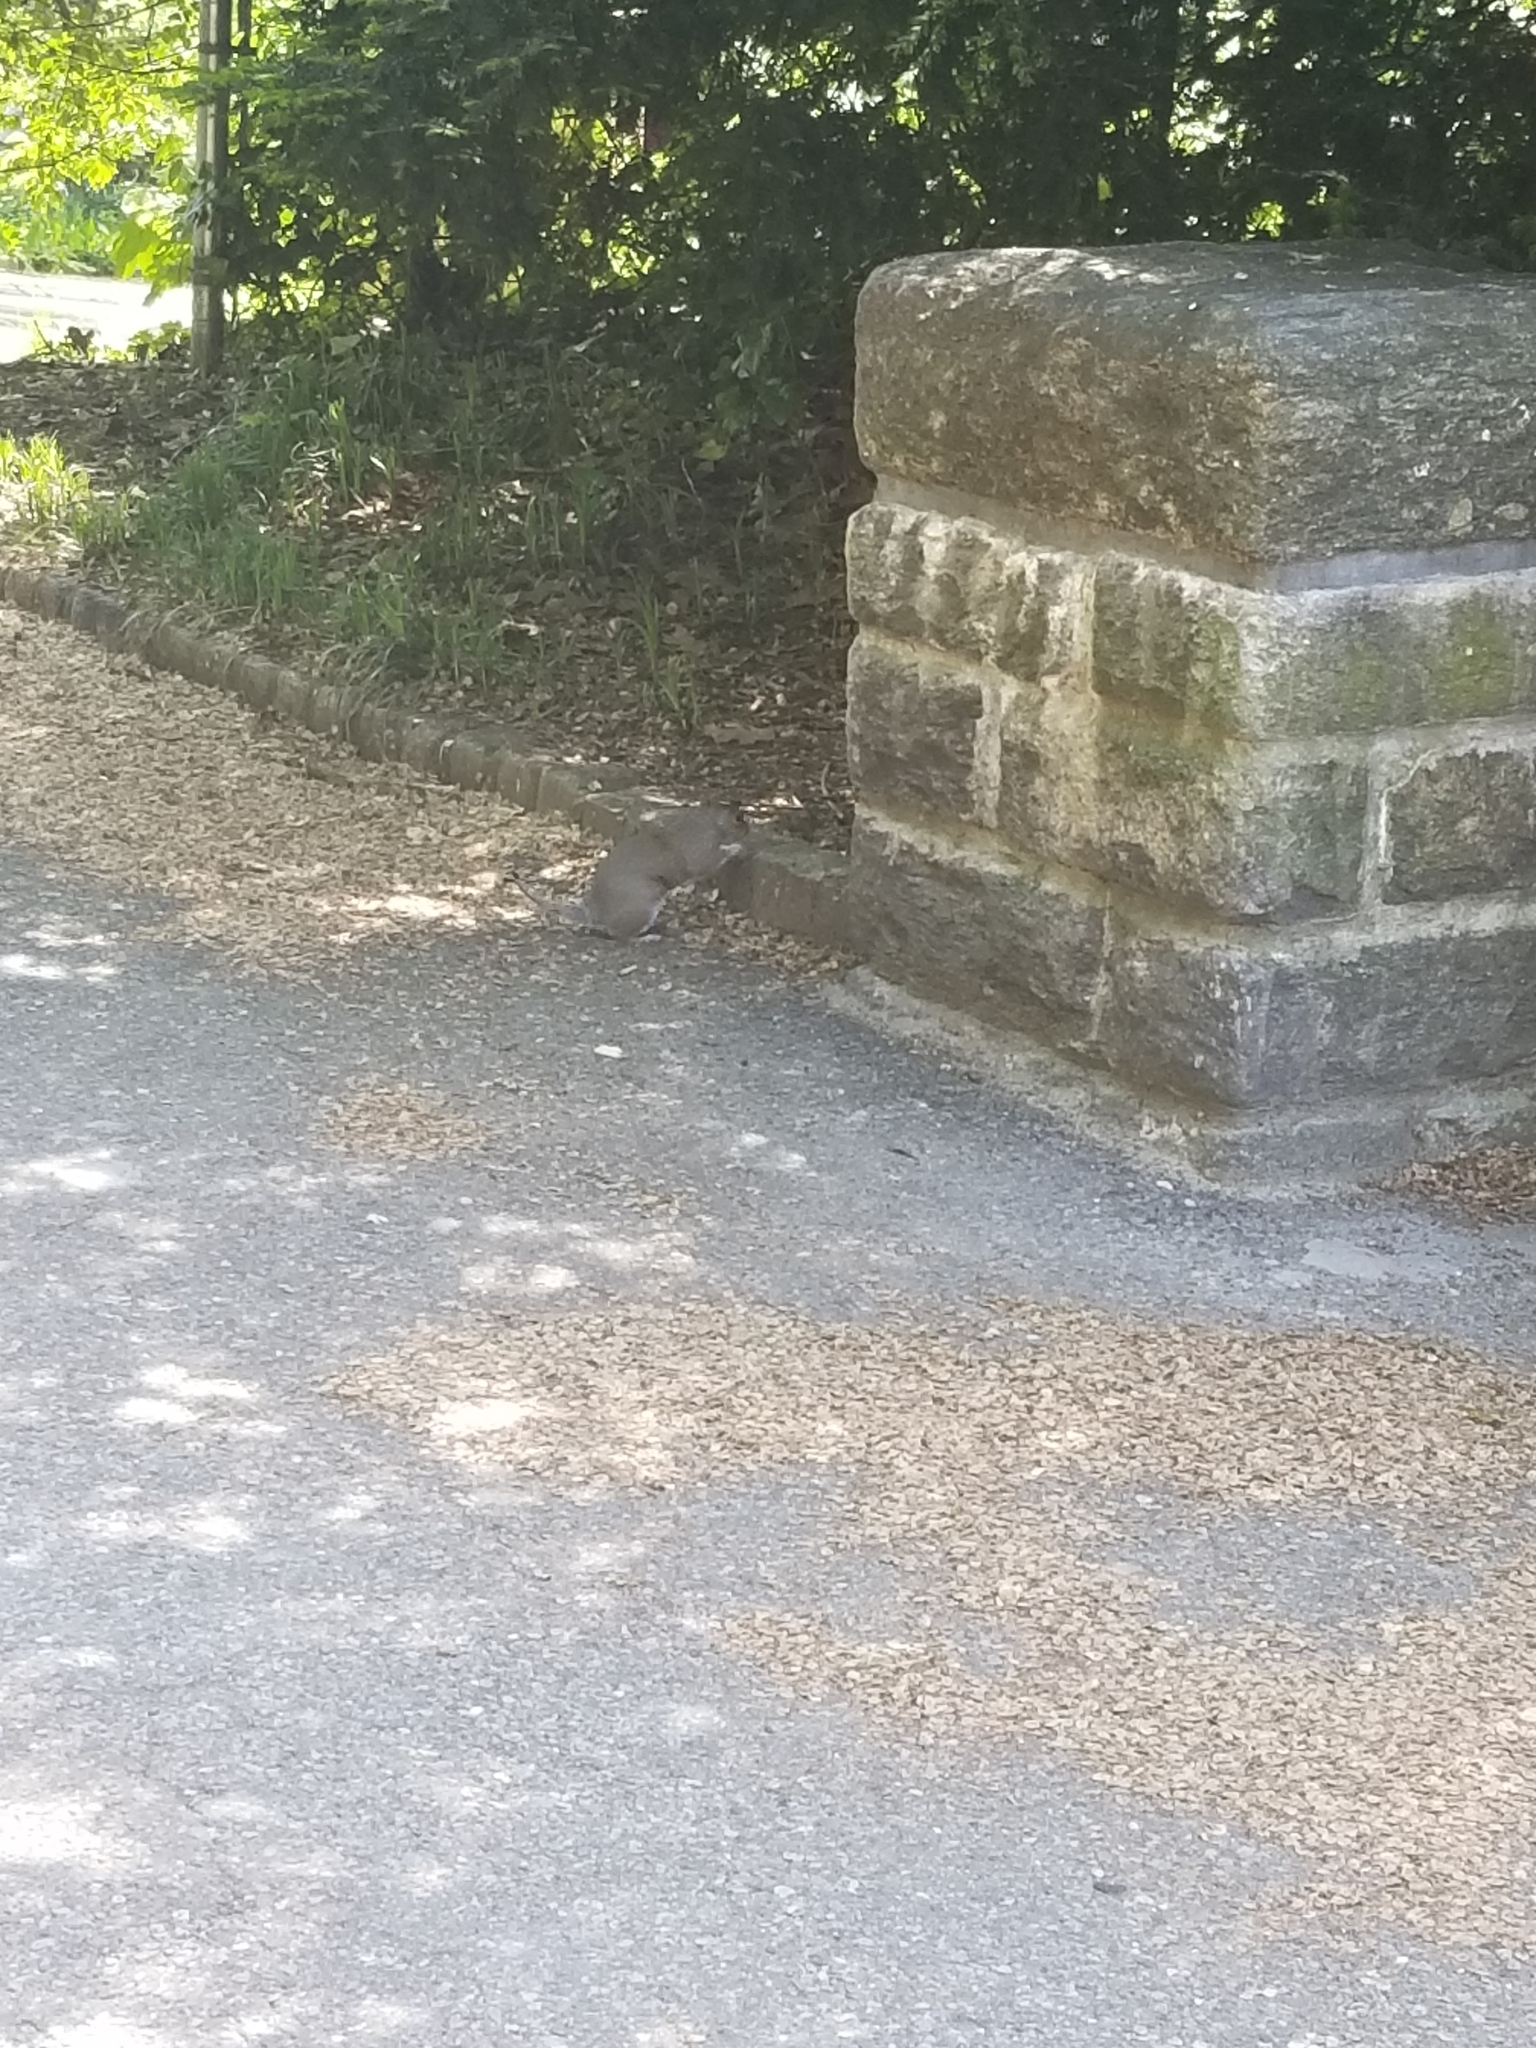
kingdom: Animalia
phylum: Chordata
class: Mammalia
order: Rodentia
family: Sciuridae
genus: Sciurus
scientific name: Sciurus carolinensis
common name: Eastern gray squirrel
